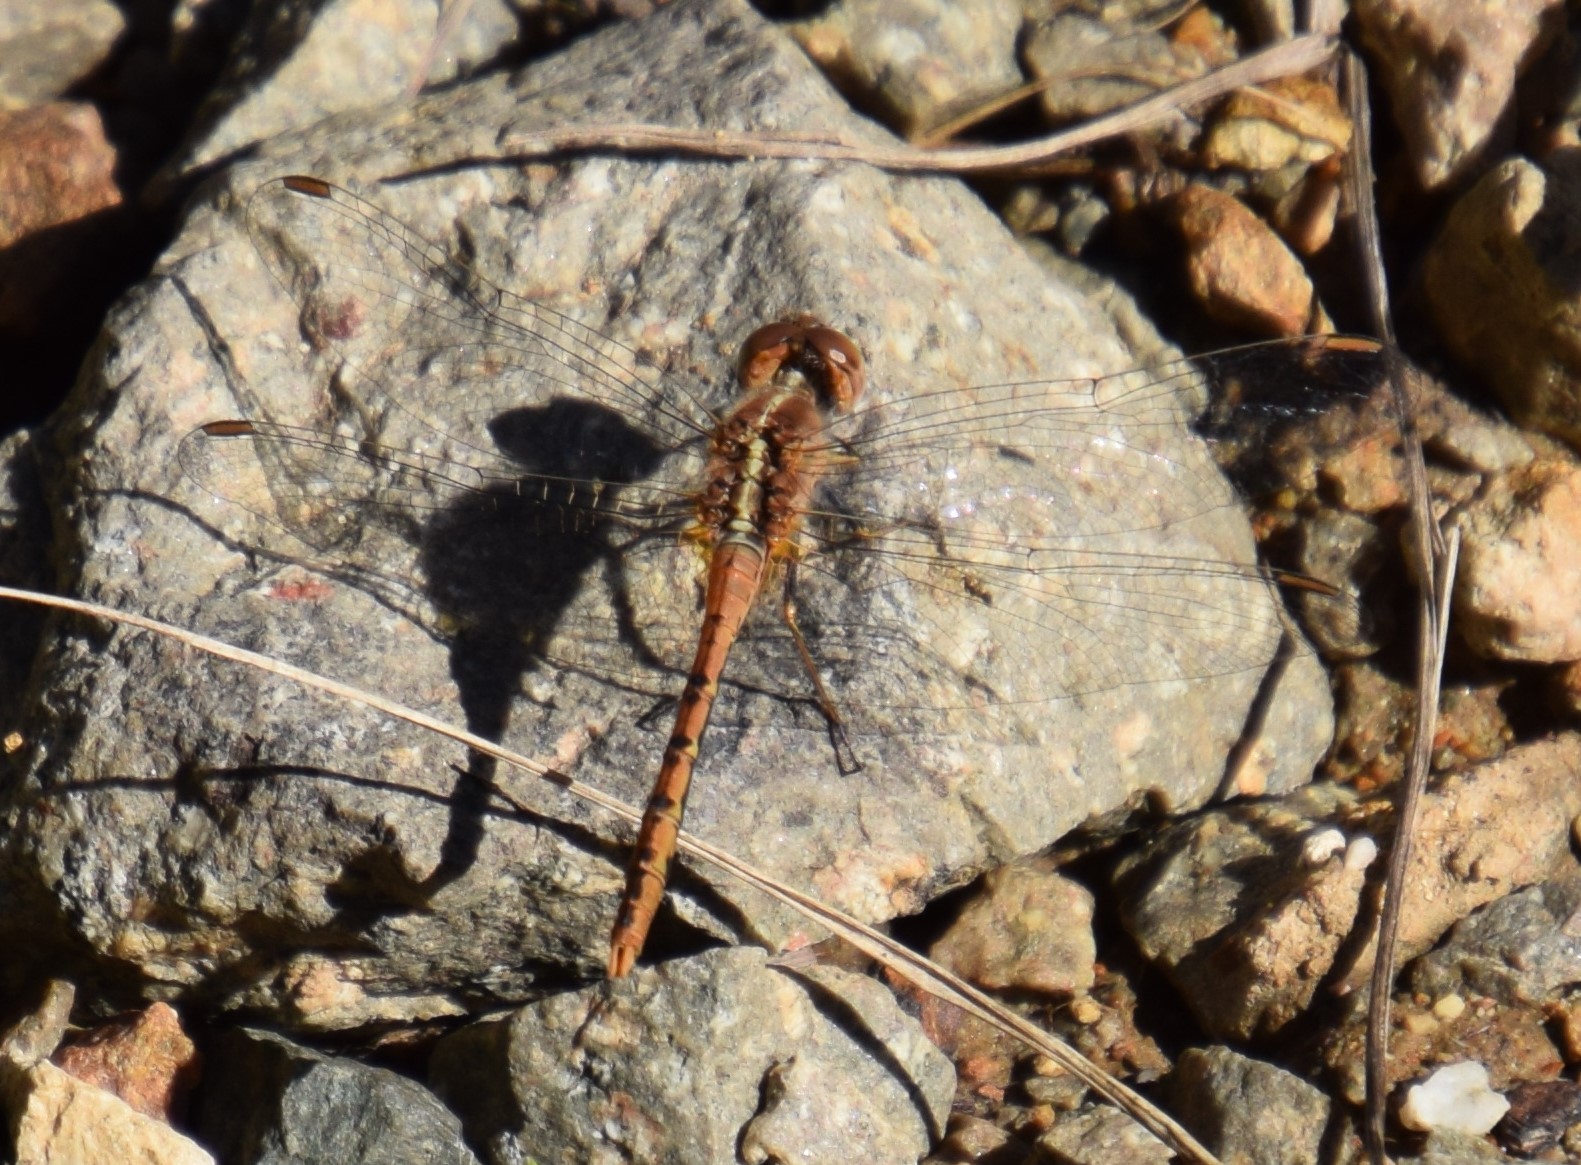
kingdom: Animalia
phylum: Arthropoda
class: Insecta
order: Odonata
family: Libellulidae
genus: Diplacodes
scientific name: Diplacodes bipunctata
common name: Red percher dragonfly
